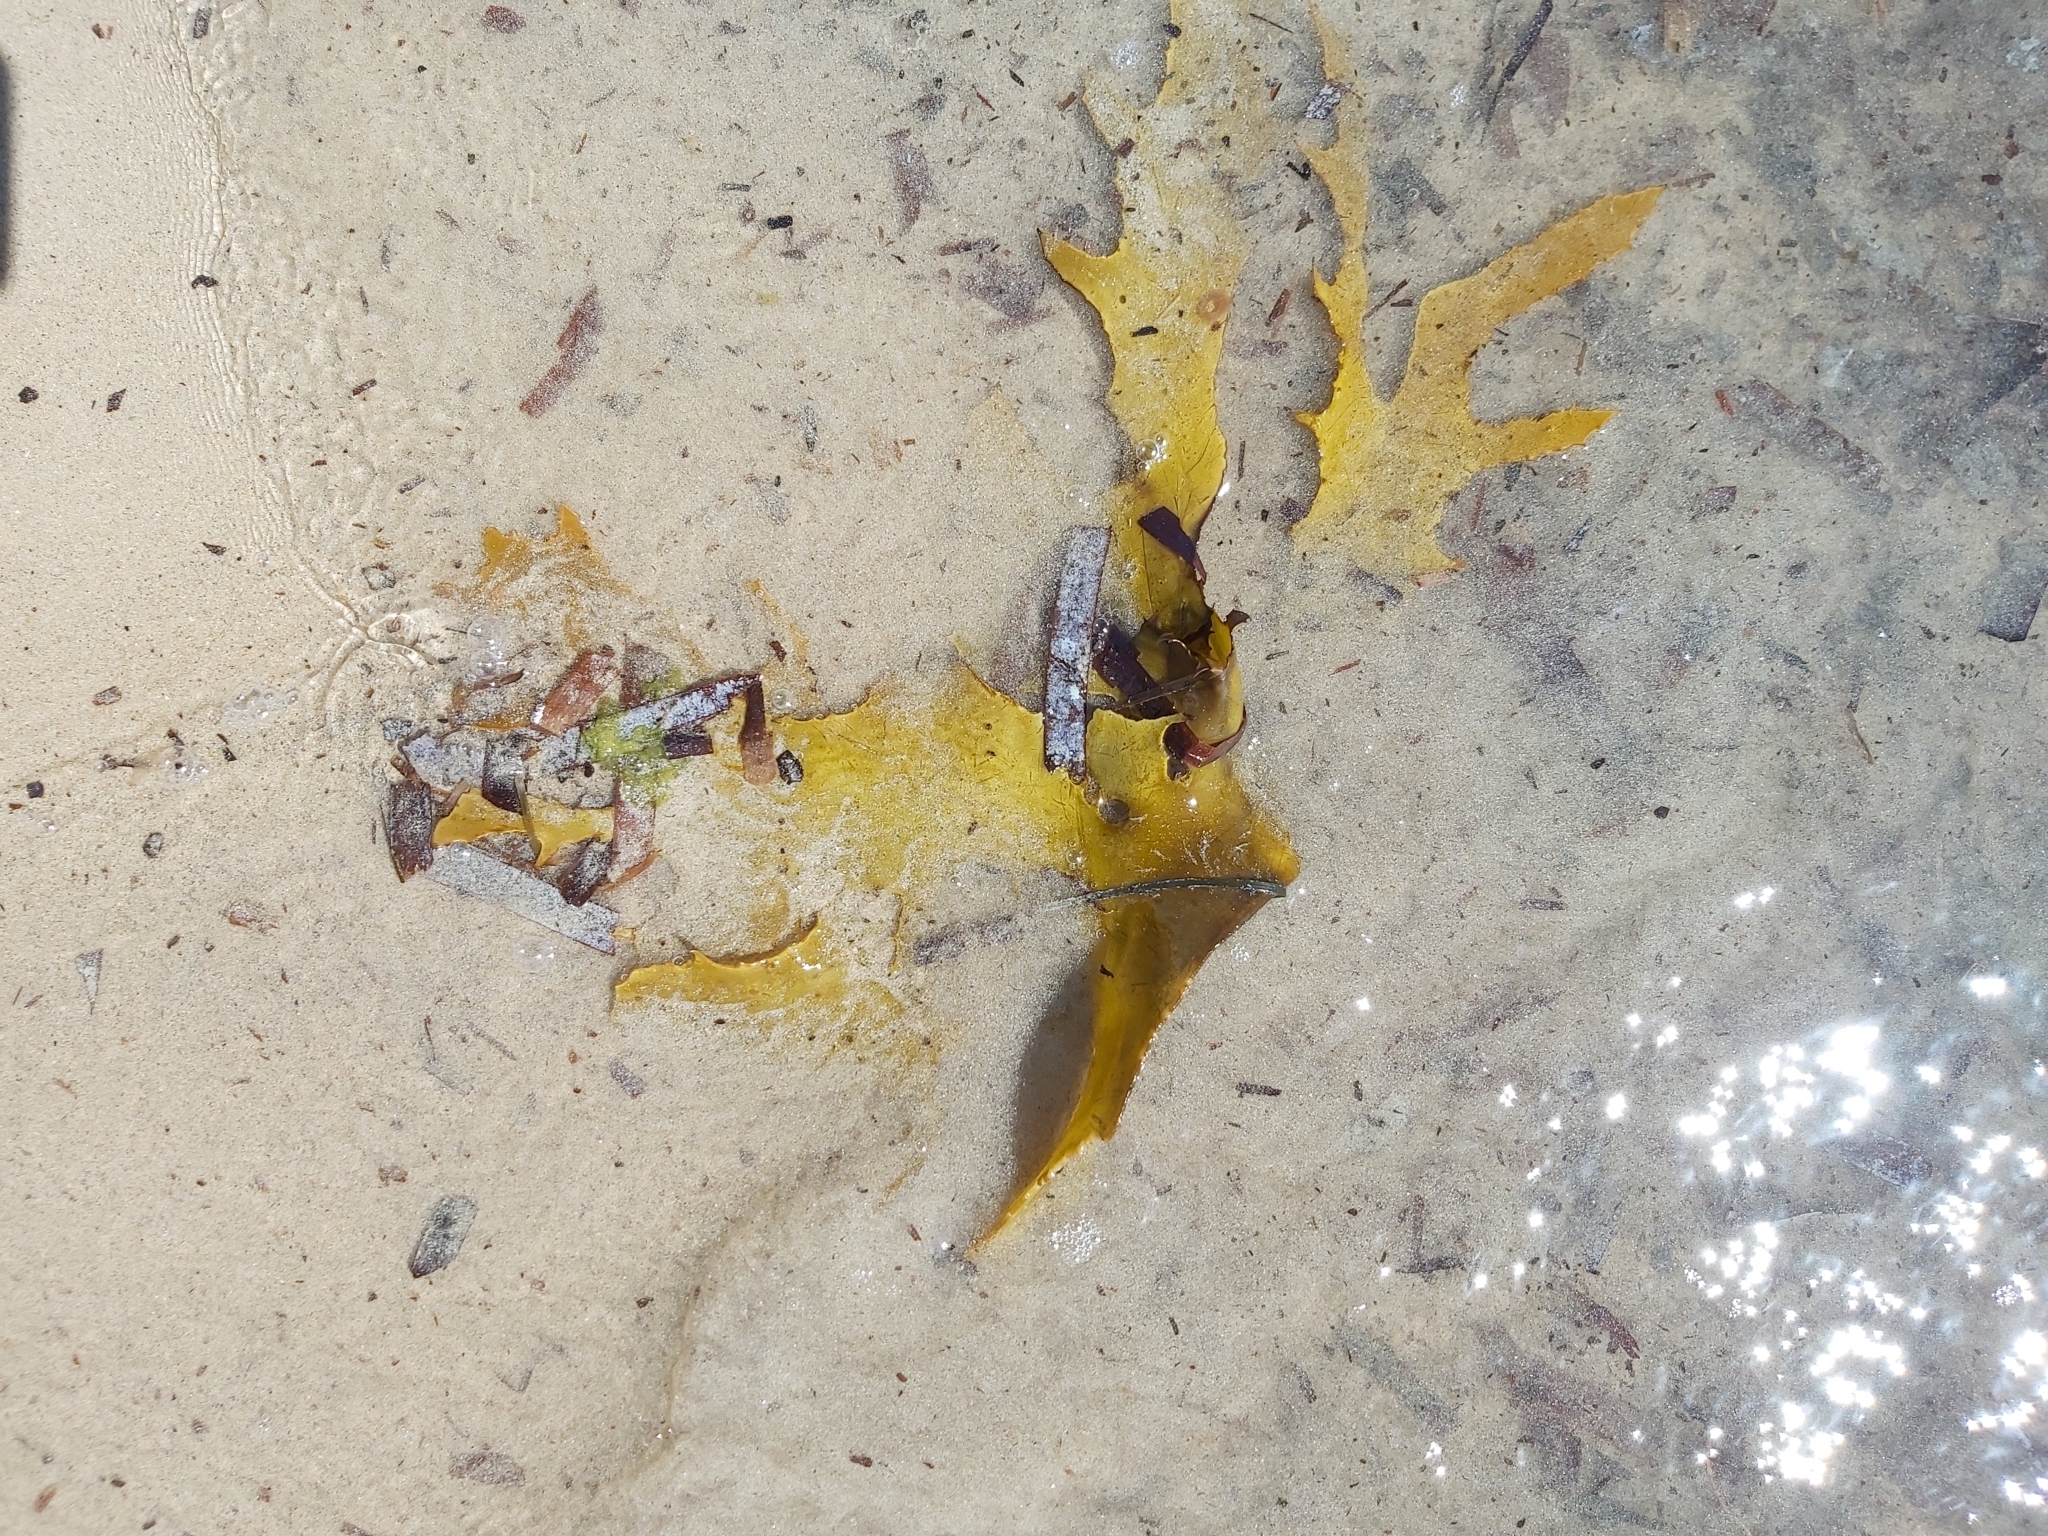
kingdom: Chromista
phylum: Ochrophyta
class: Phaeophyceae
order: Laminariales
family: Lessoniaceae
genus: Ecklonia
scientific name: Ecklonia radiata
